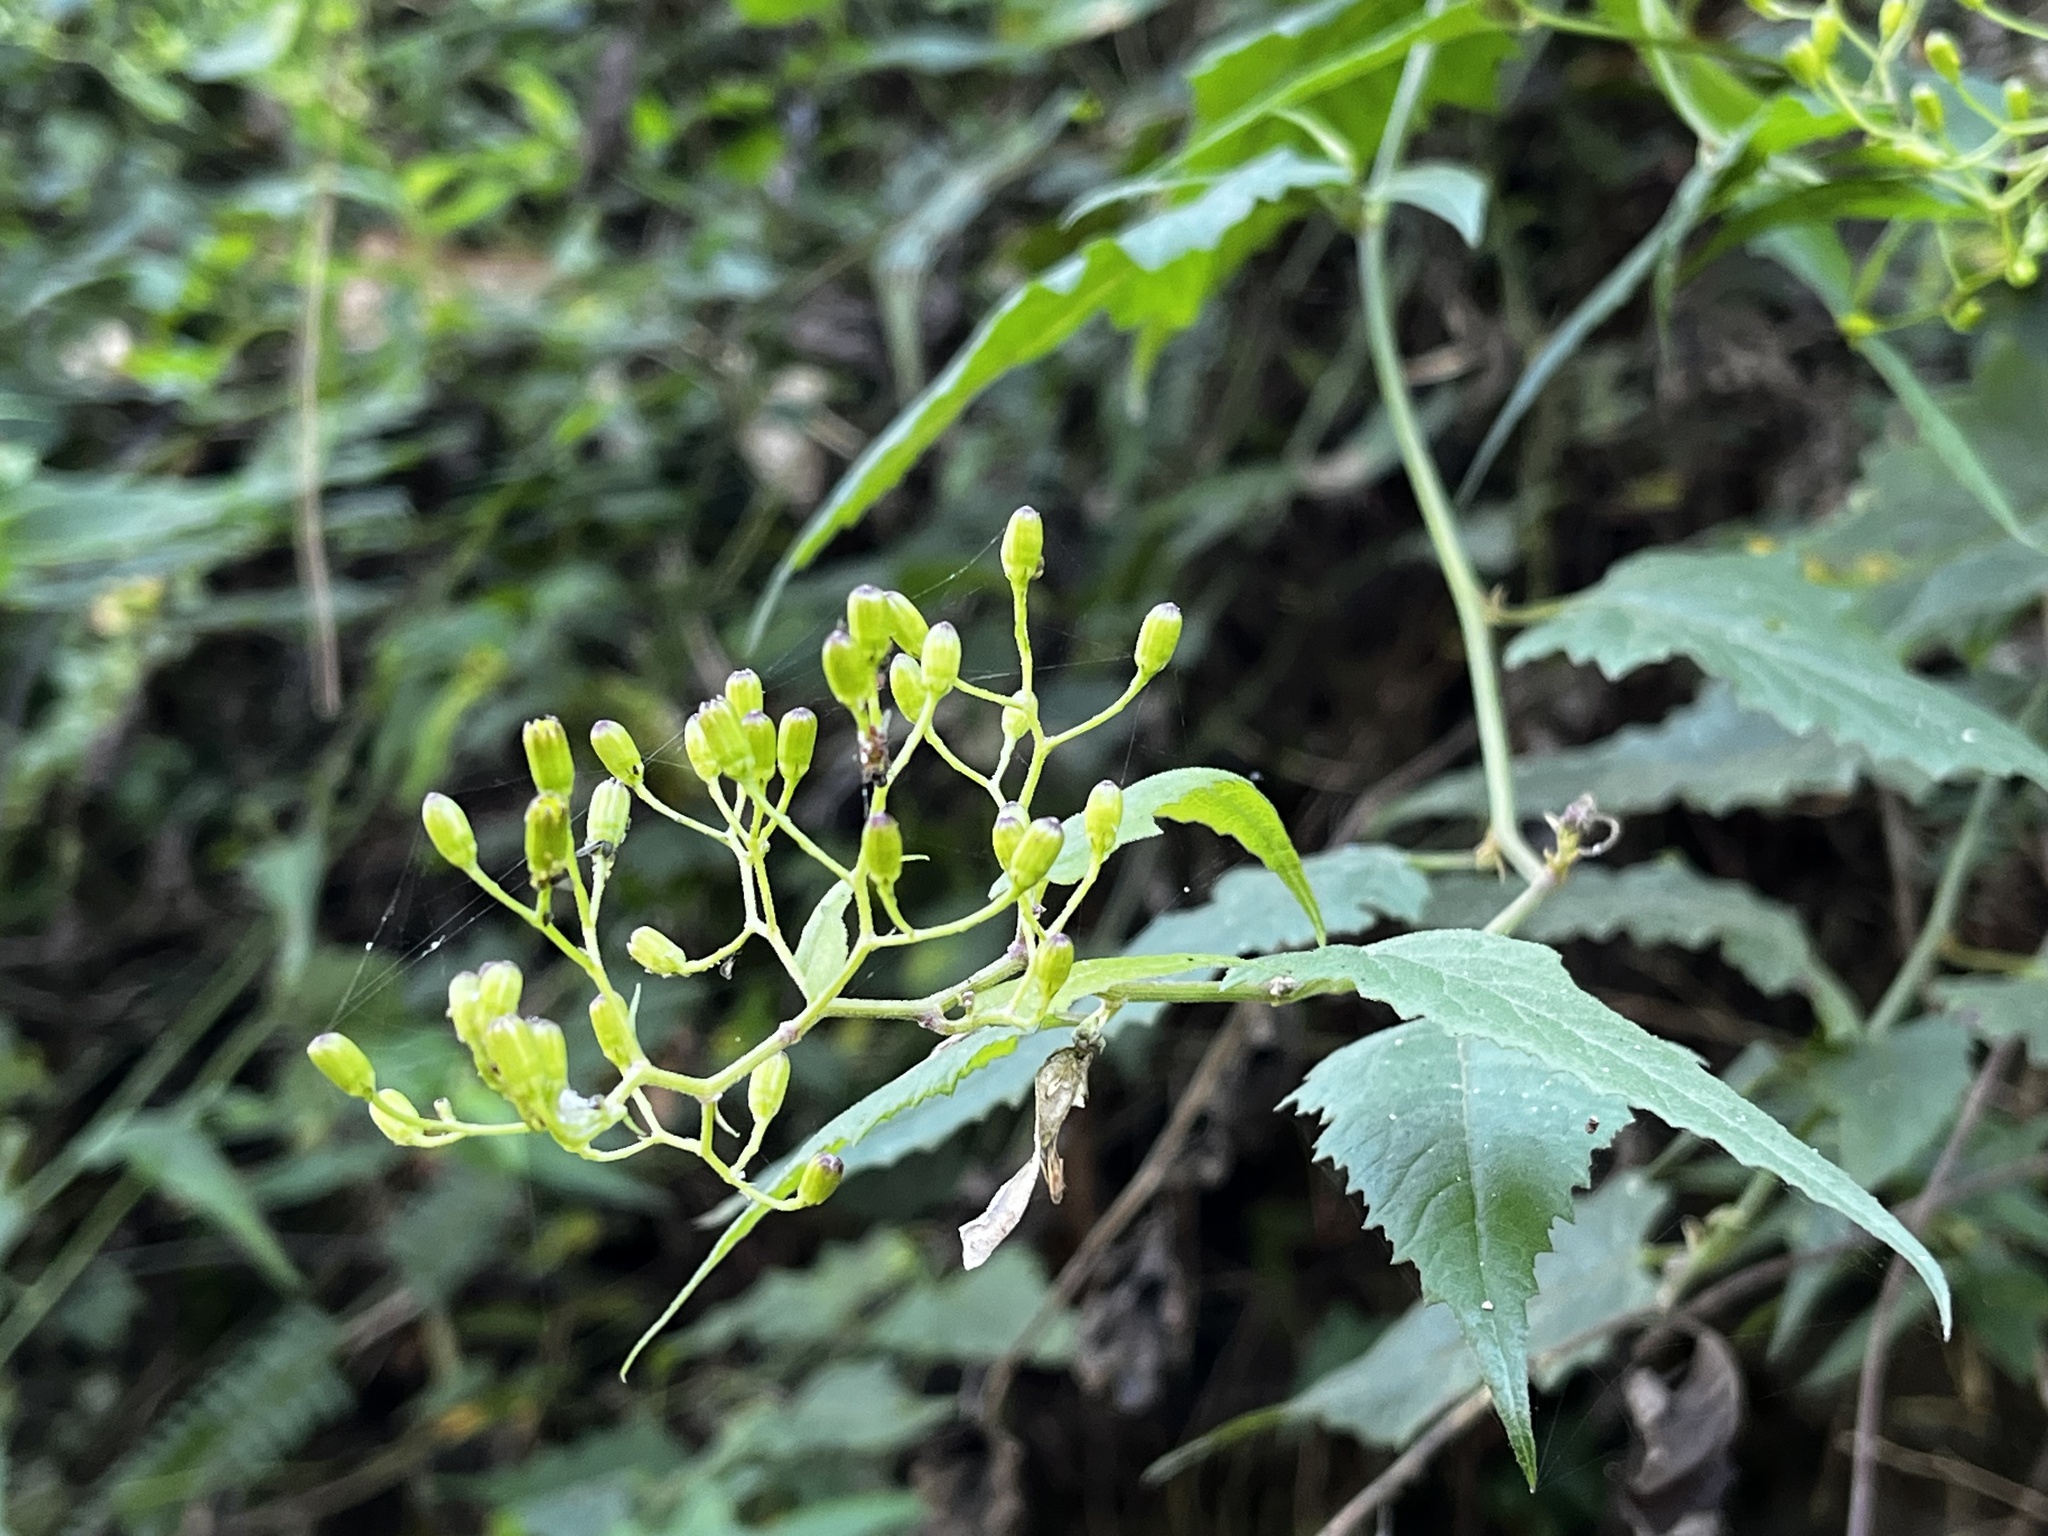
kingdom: Plantae
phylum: Tracheophyta
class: Magnoliopsida
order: Asterales
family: Asteraceae
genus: Senecio
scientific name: Senecio scandens
